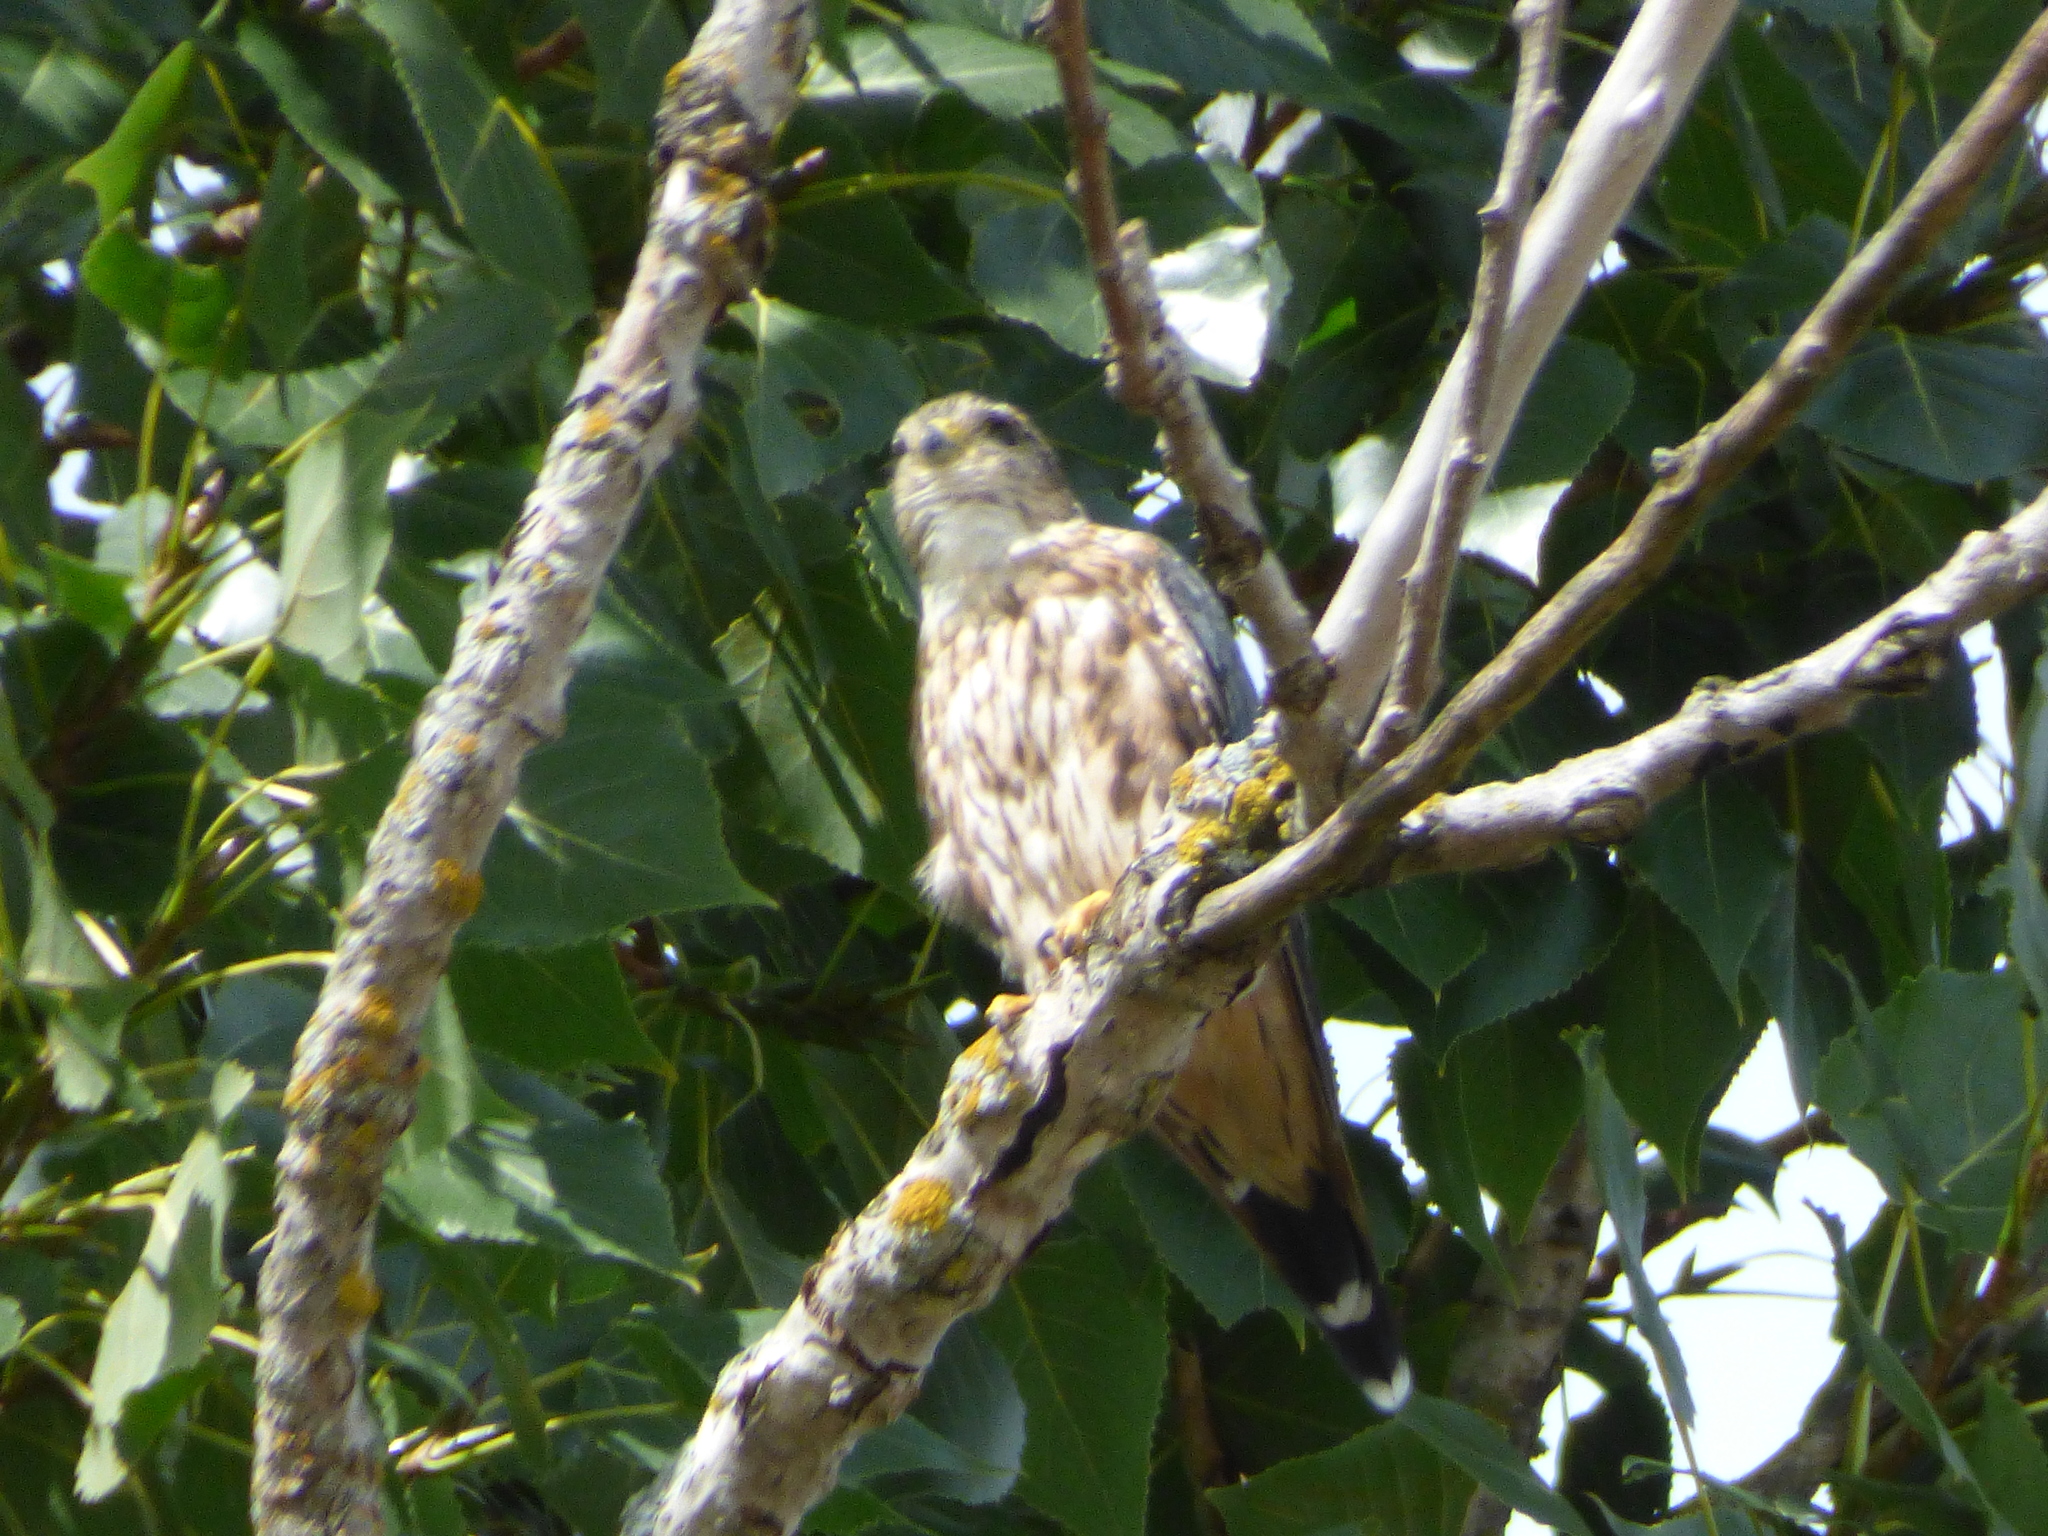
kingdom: Animalia
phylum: Chordata
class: Aves
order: Falconiformes
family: Falconidae
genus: Falco
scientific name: Falco columbarius
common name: Merlin
